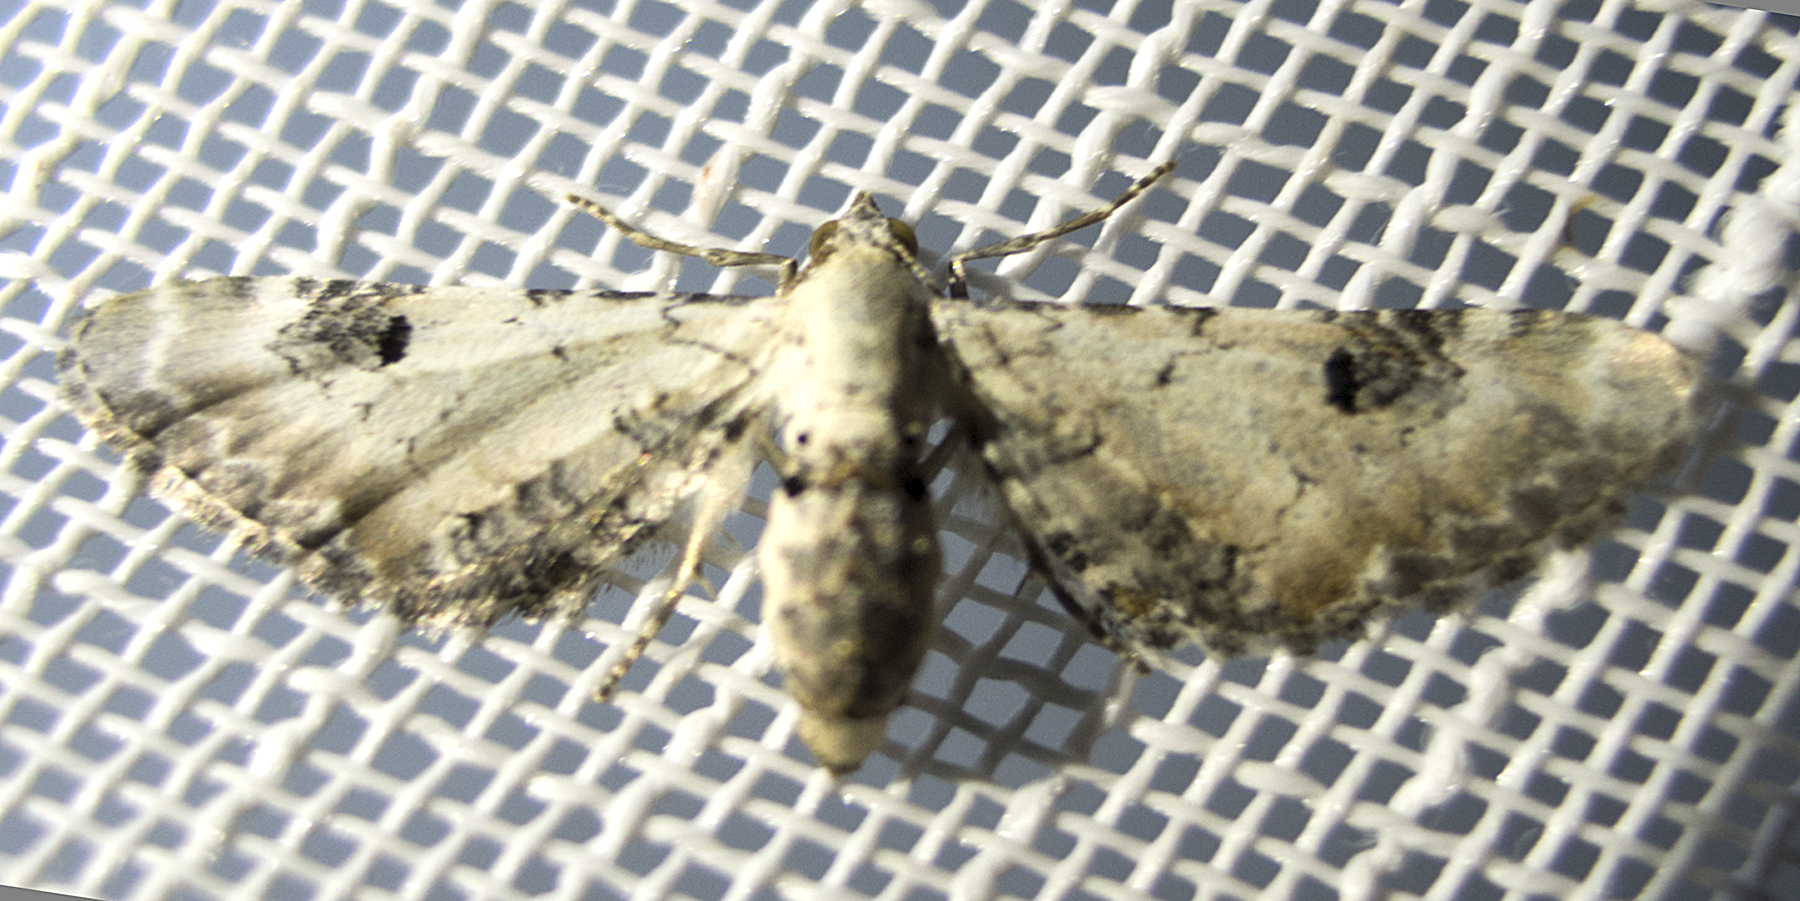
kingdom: Animalia
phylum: Arthropoda
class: Insecta
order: Lepidoptera
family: Geometridae
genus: Eupithecia
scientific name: Eupithecia centaureata
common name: Lime-speck pug
